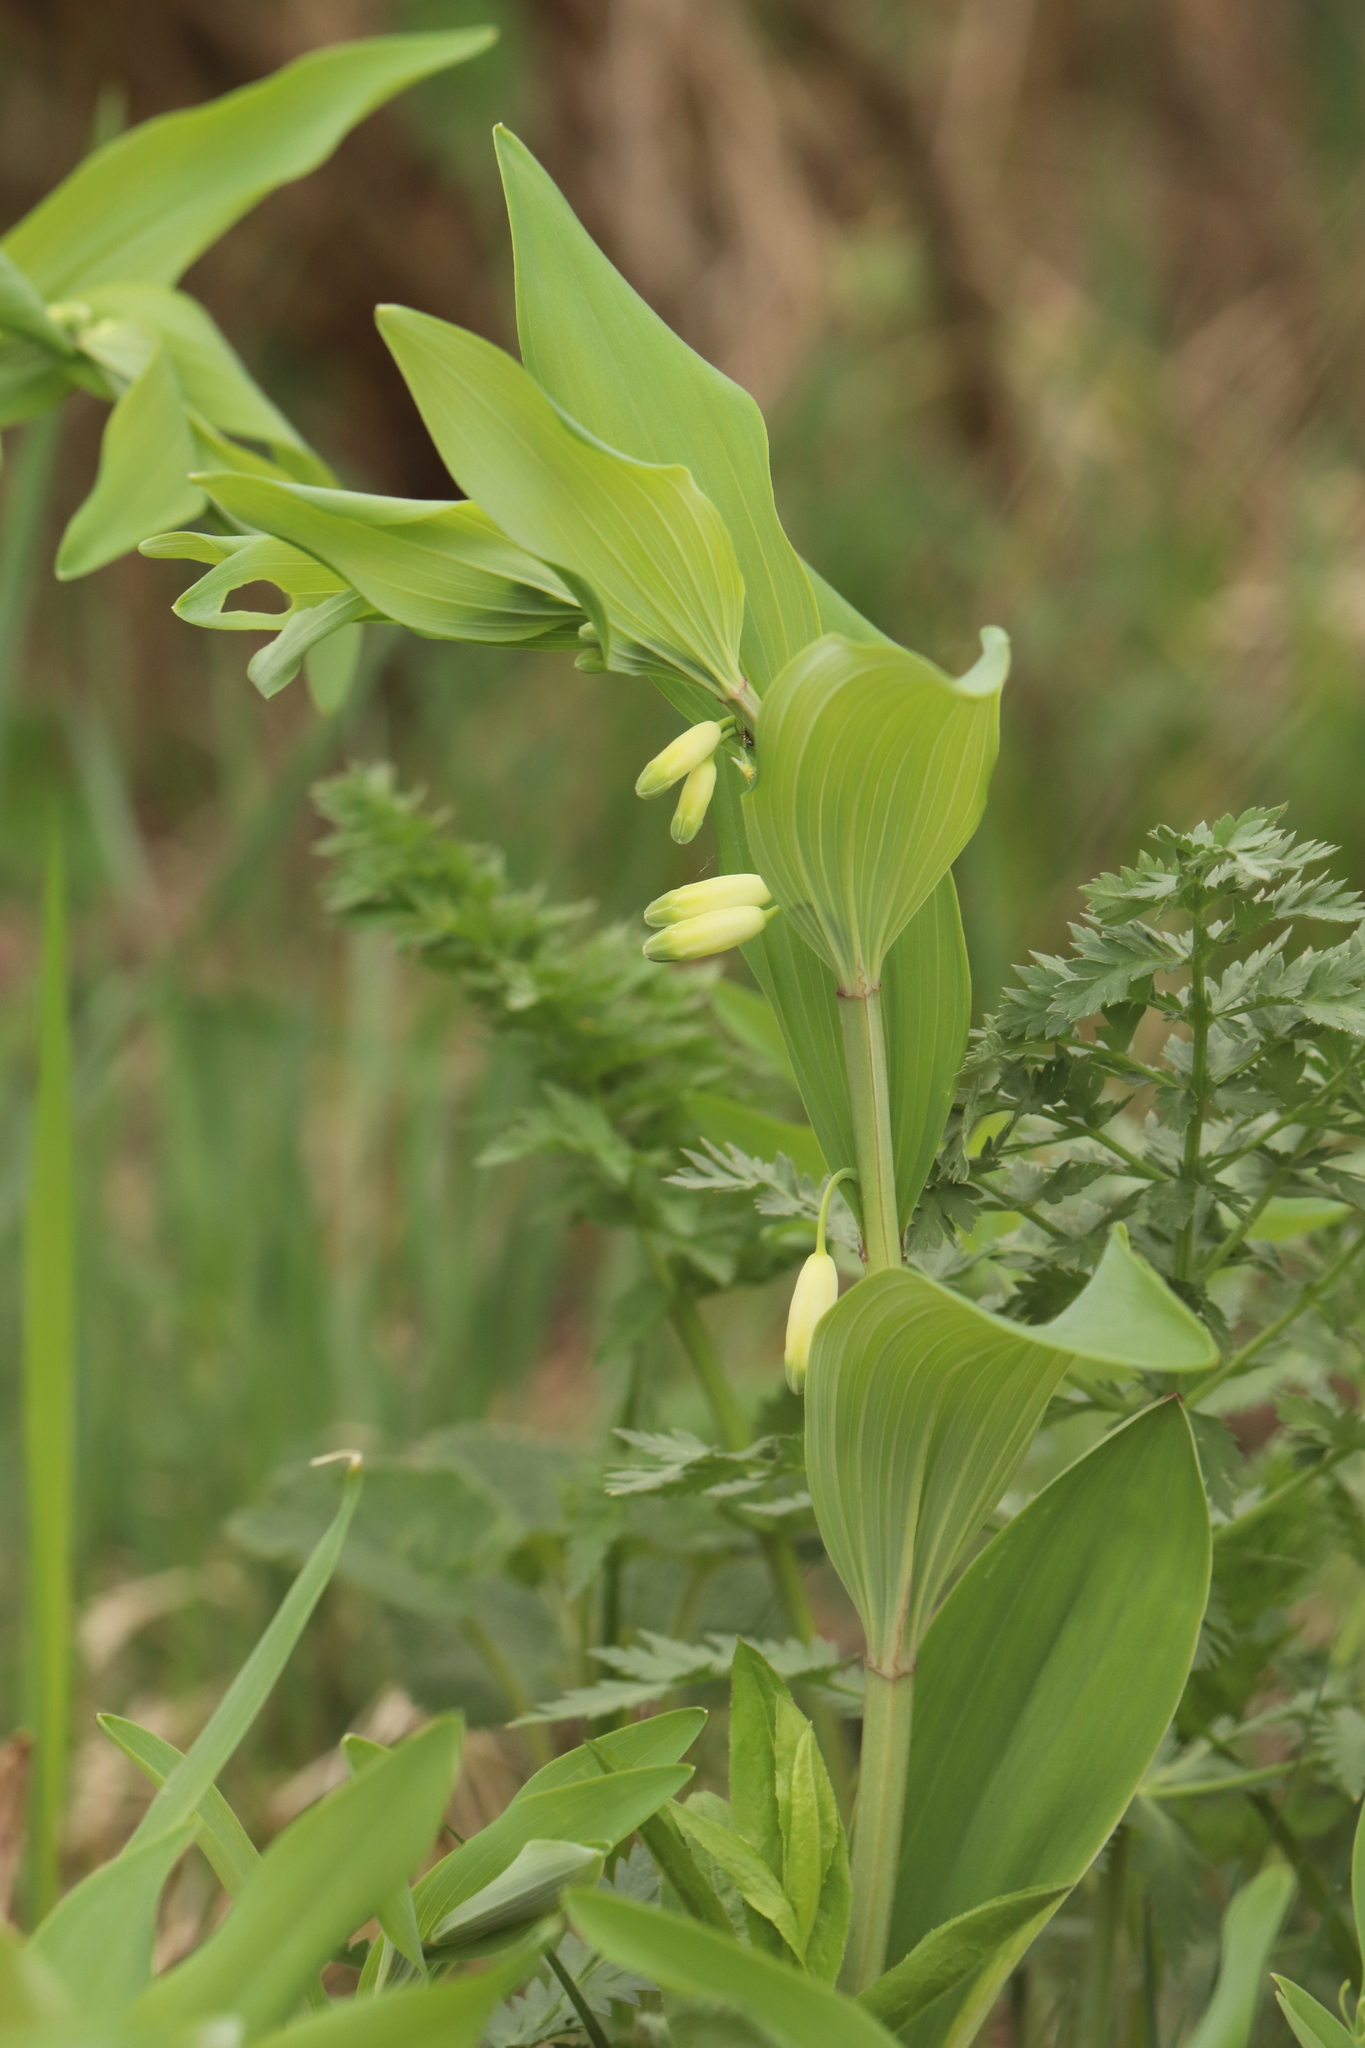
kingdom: Plantae
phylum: Tracheophyta
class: Liliopsida
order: Asparagales
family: Asparagaceae
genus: Polygonatum
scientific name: Polygonatum odoratum
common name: Angular solomon's-seal
